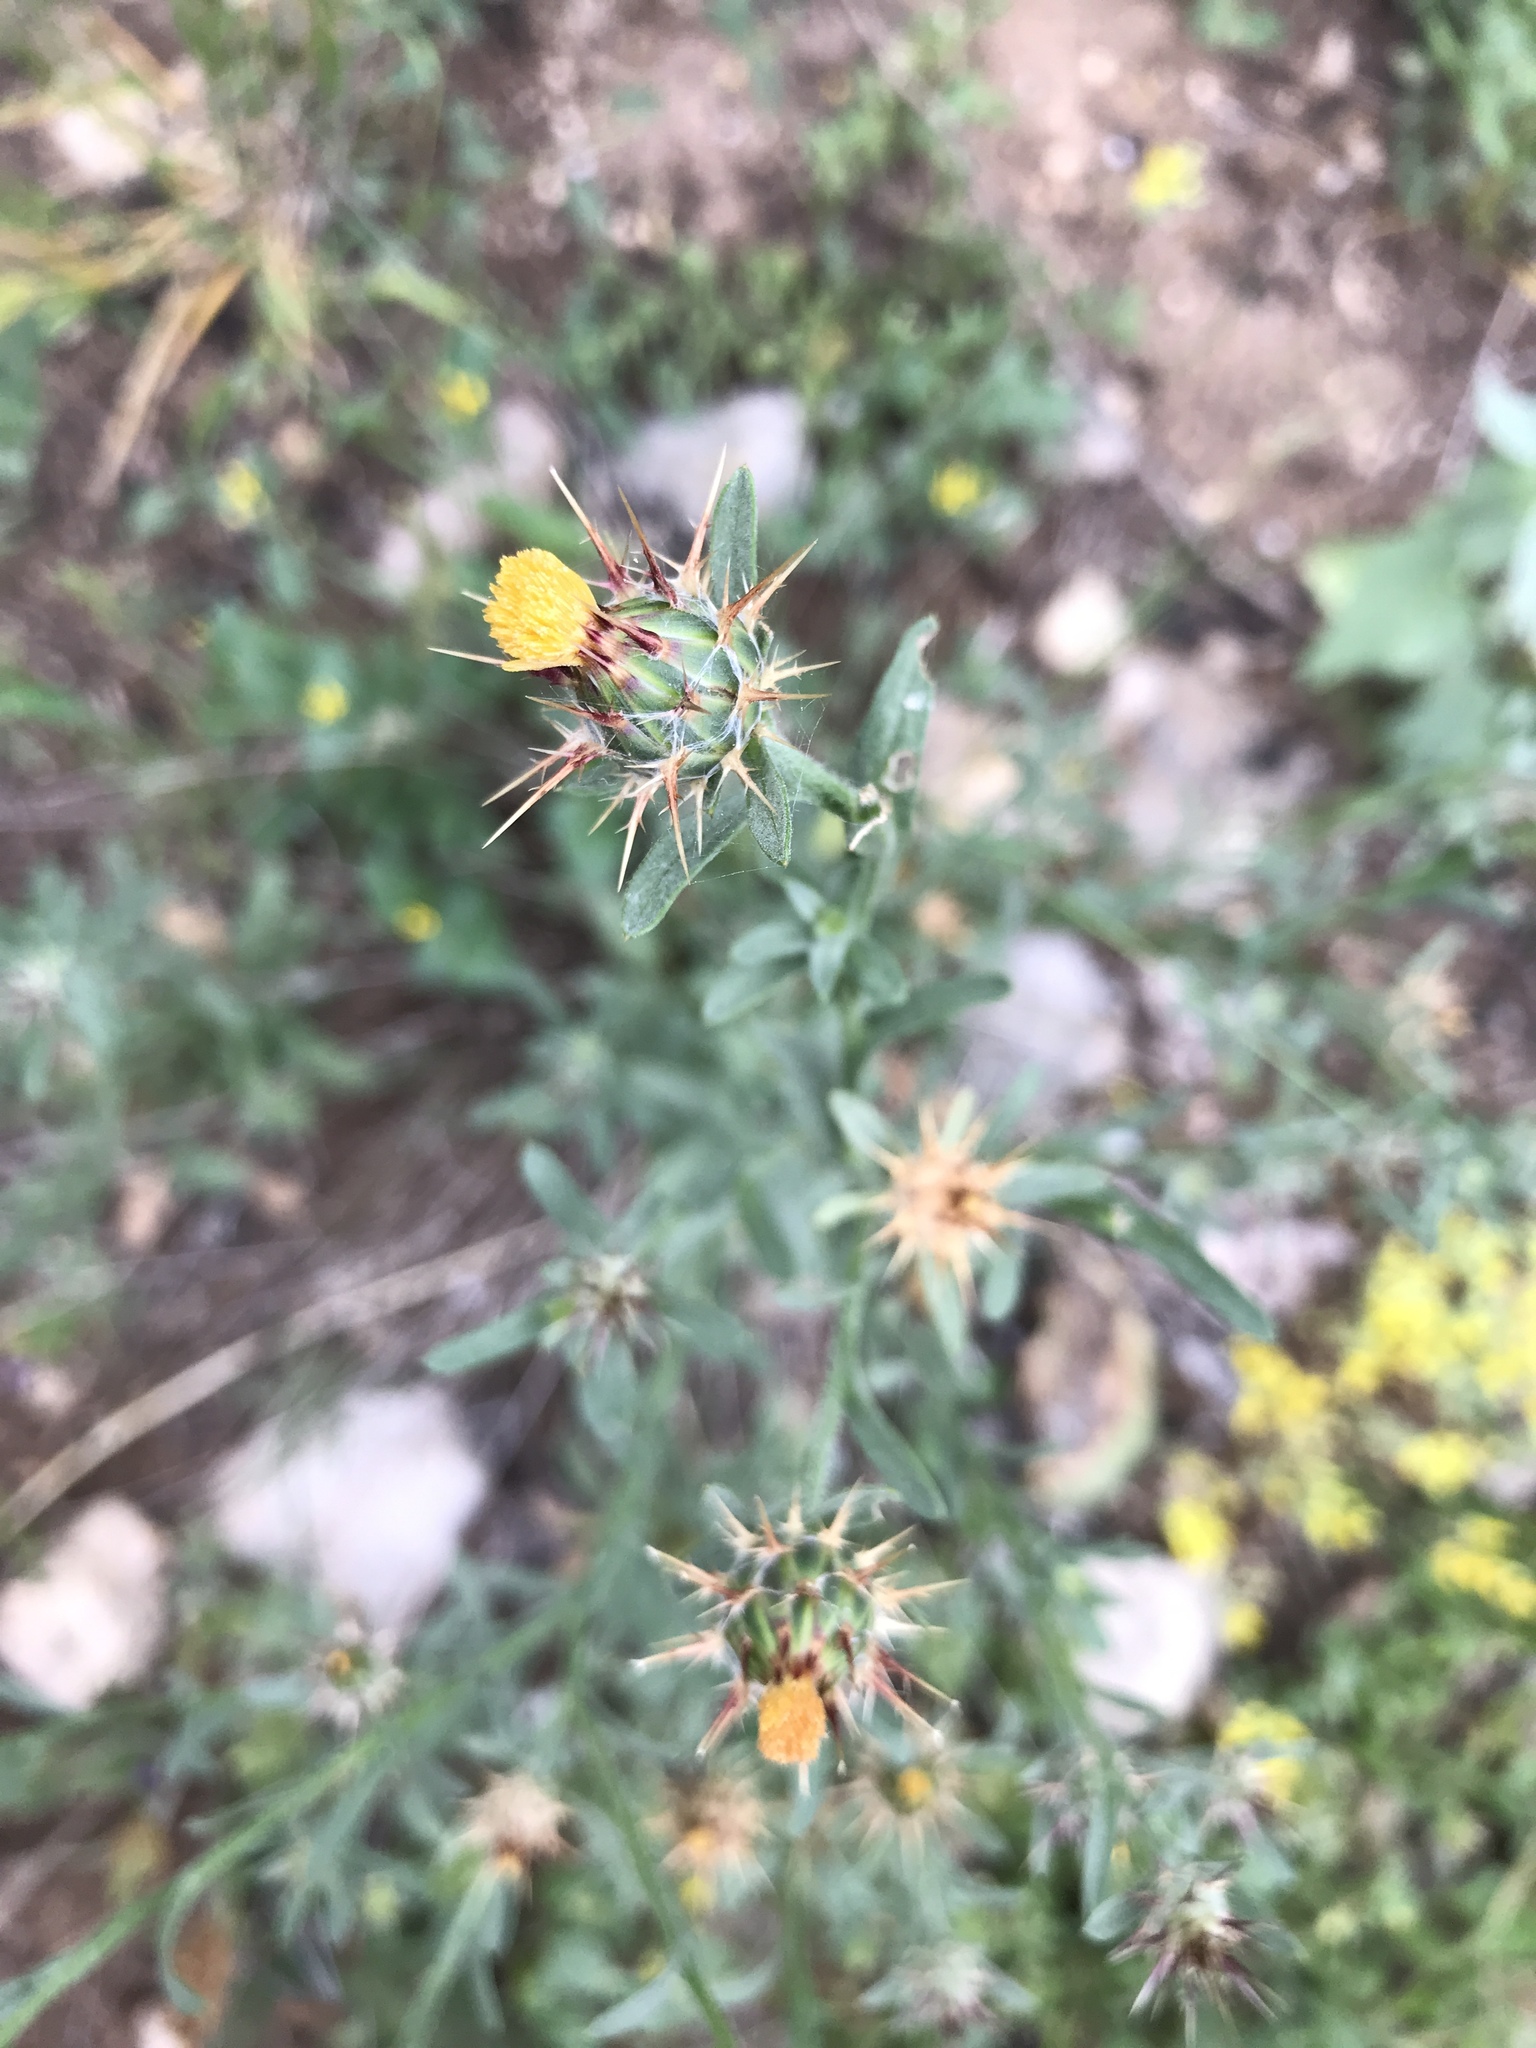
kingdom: Plantae
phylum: Tracheophyta
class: Magnoliopsida
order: Asterales
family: Asteraceae
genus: Centaurea
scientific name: Centaurea melitensis
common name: Maltese star-thistle
